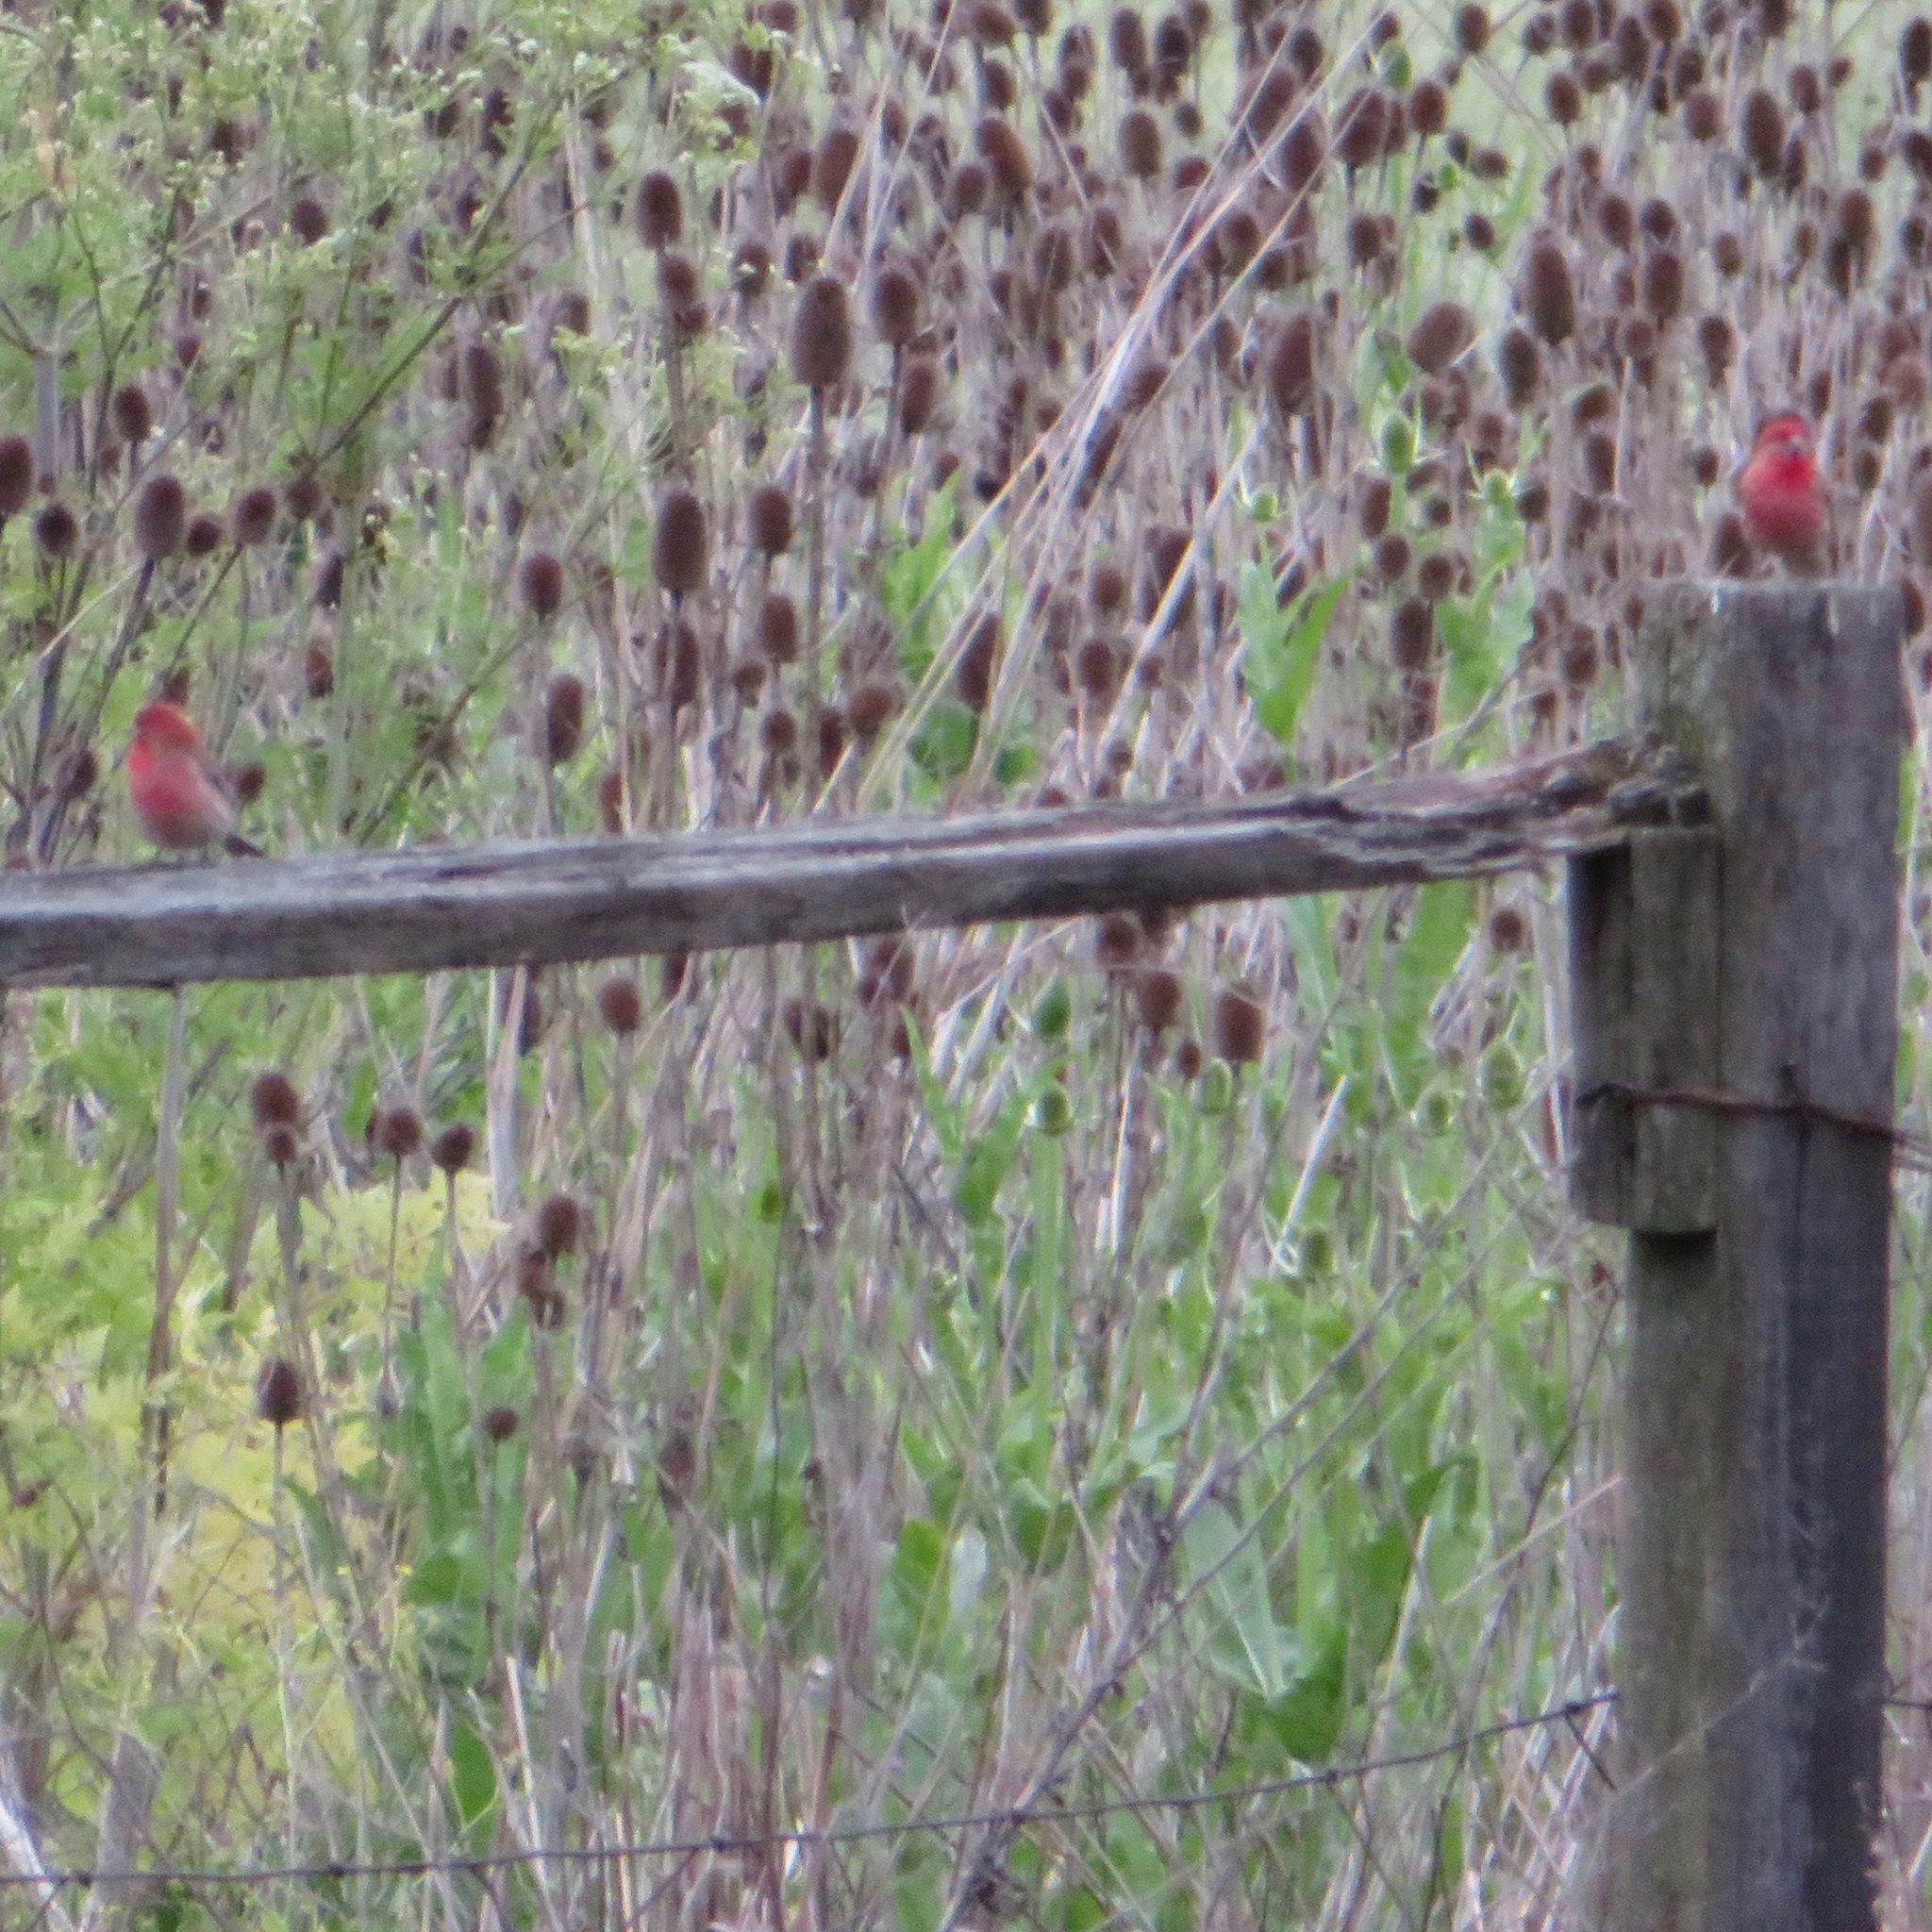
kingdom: Animalia
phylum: Chordata
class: Aves
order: Passeriformes
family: Fringillidae
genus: Haemorhous
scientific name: Haemorhous mexicanus
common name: House finch
